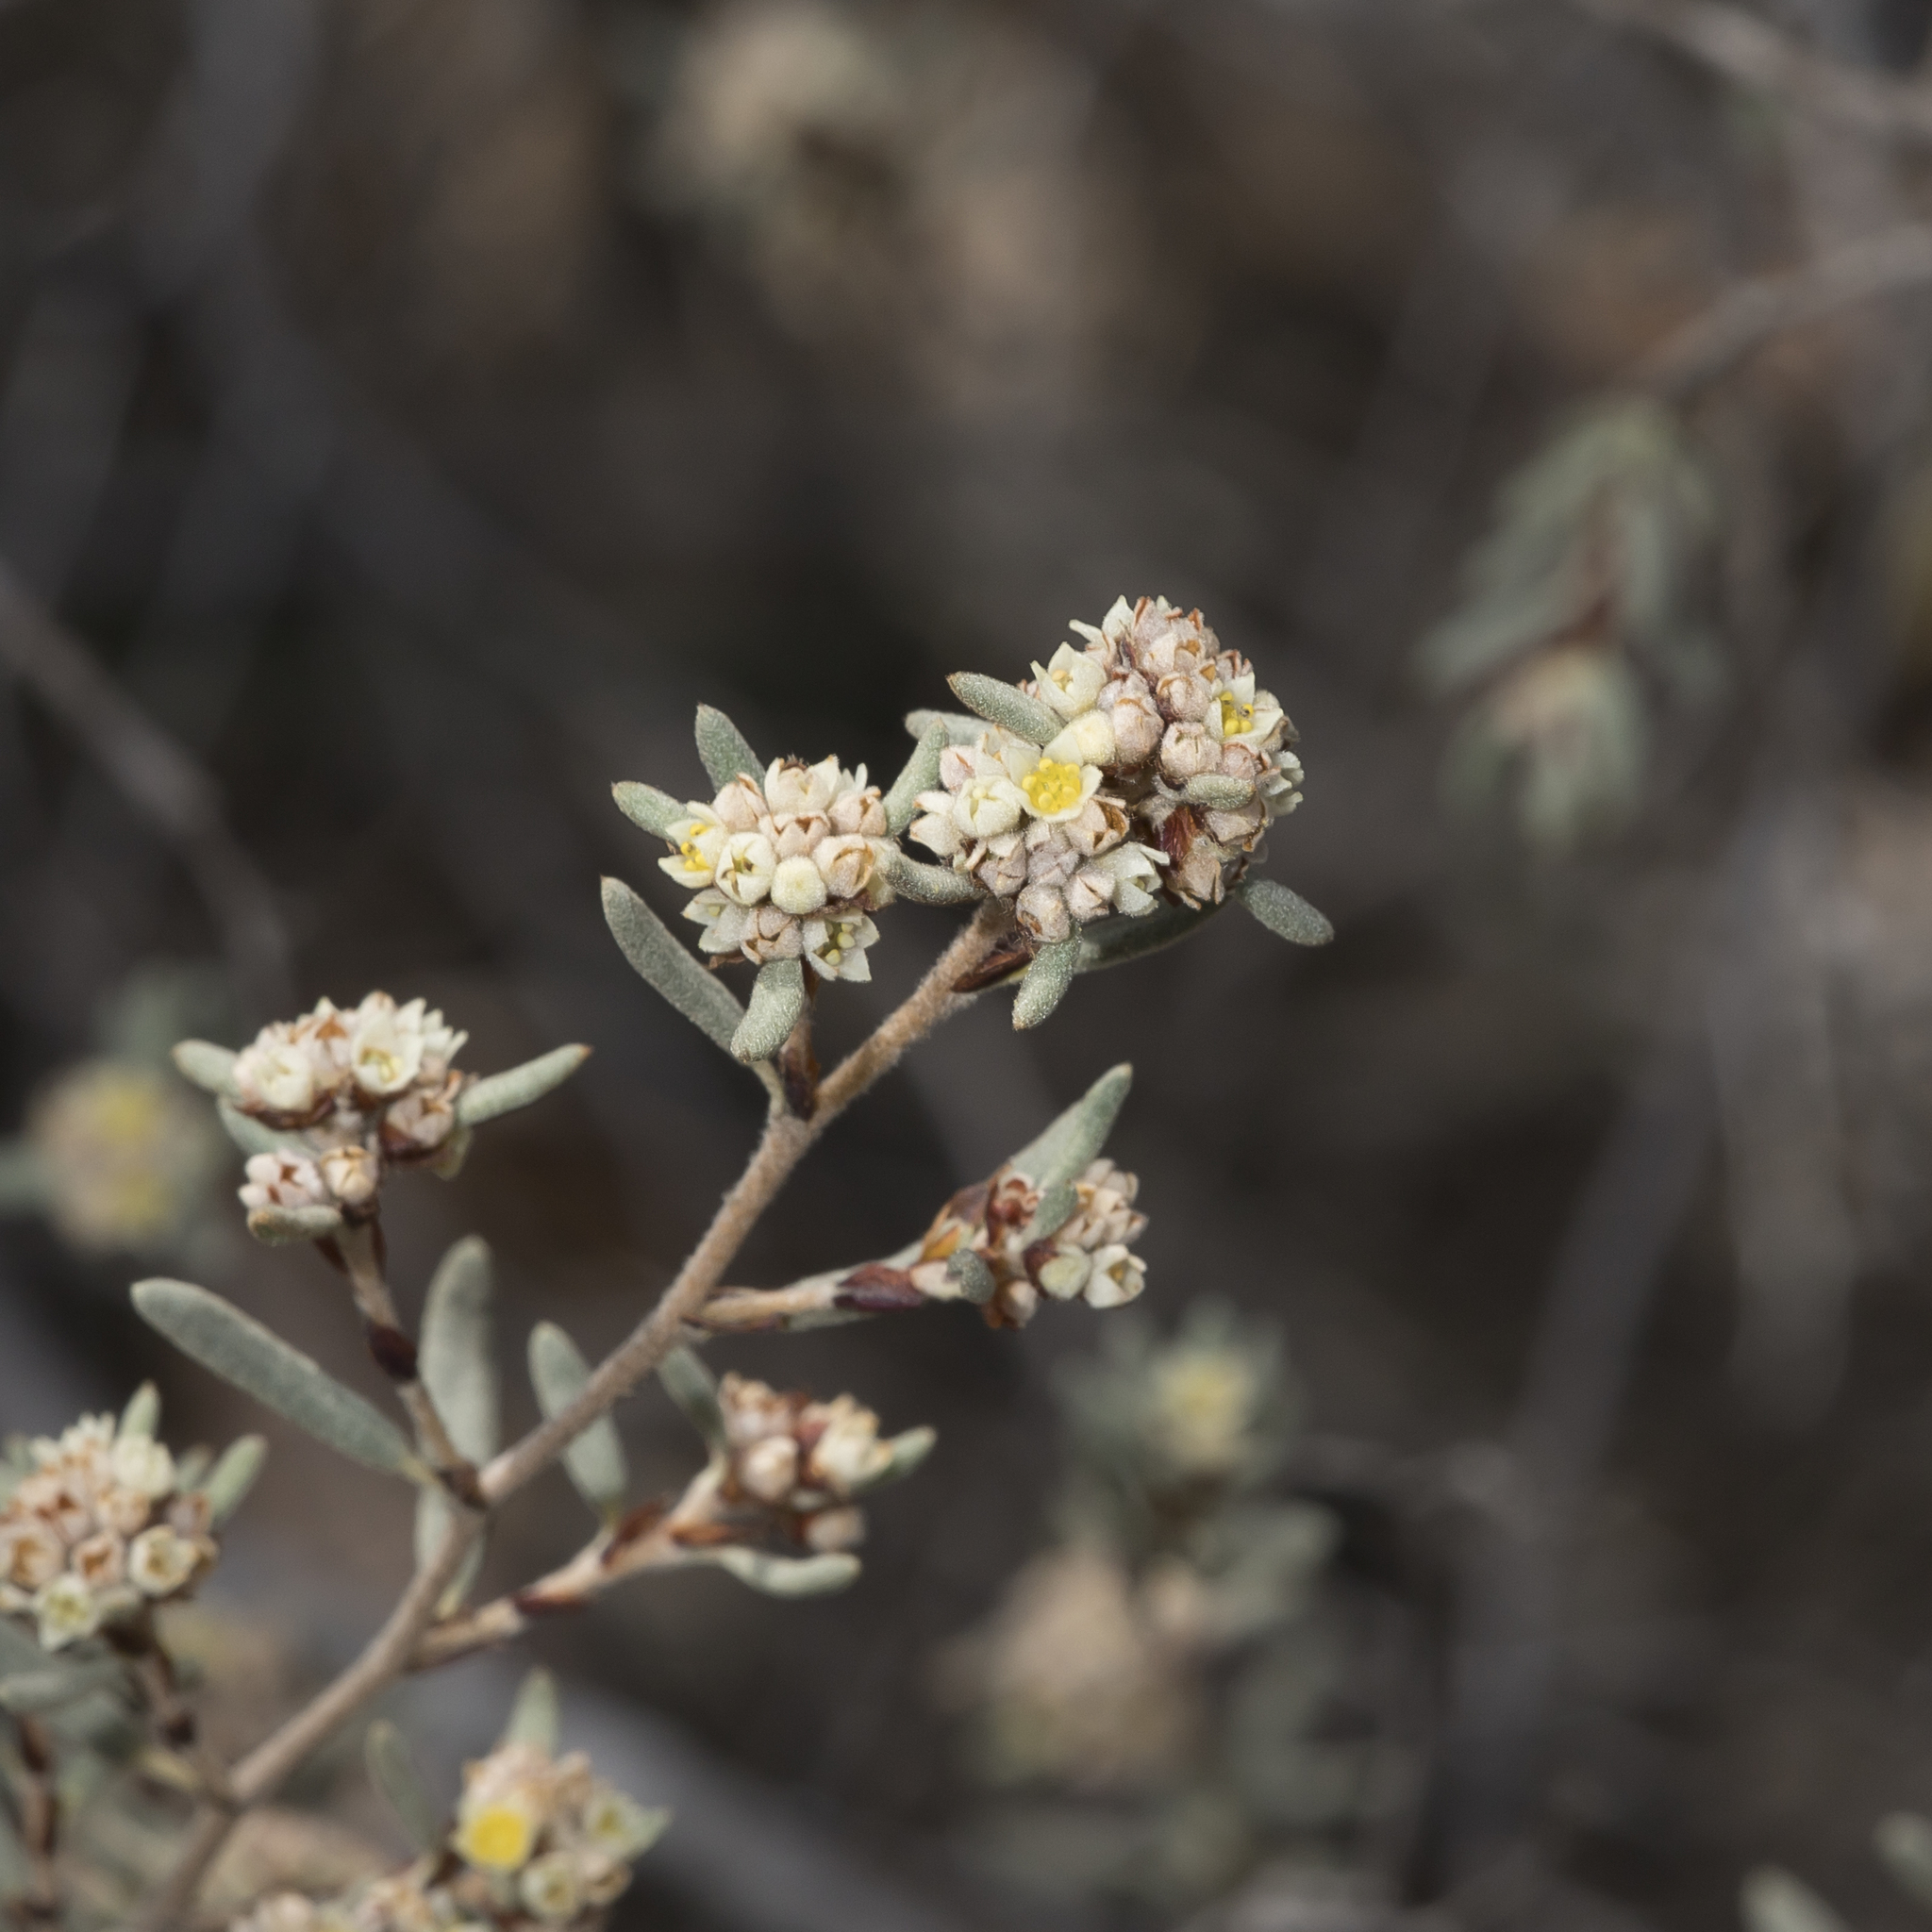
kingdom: Plantae
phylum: Tracheophyta
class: Magnoliopsida
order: Rosales
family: Rhamnaceae
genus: Spyridium
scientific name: Spyridium subochreatum
